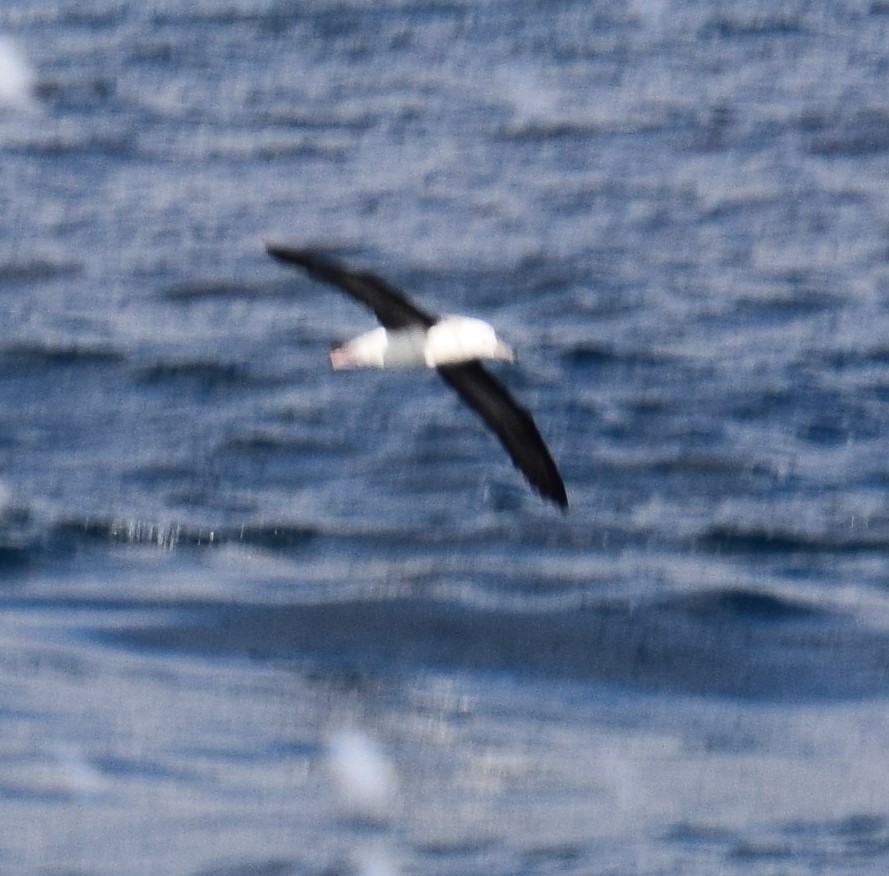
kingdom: Animalia
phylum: Chordata
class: Aves
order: Procellariiformes
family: Diomedeidae
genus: Thalassarche
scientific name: Thalassarche melanophris
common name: Black-browed albatross
